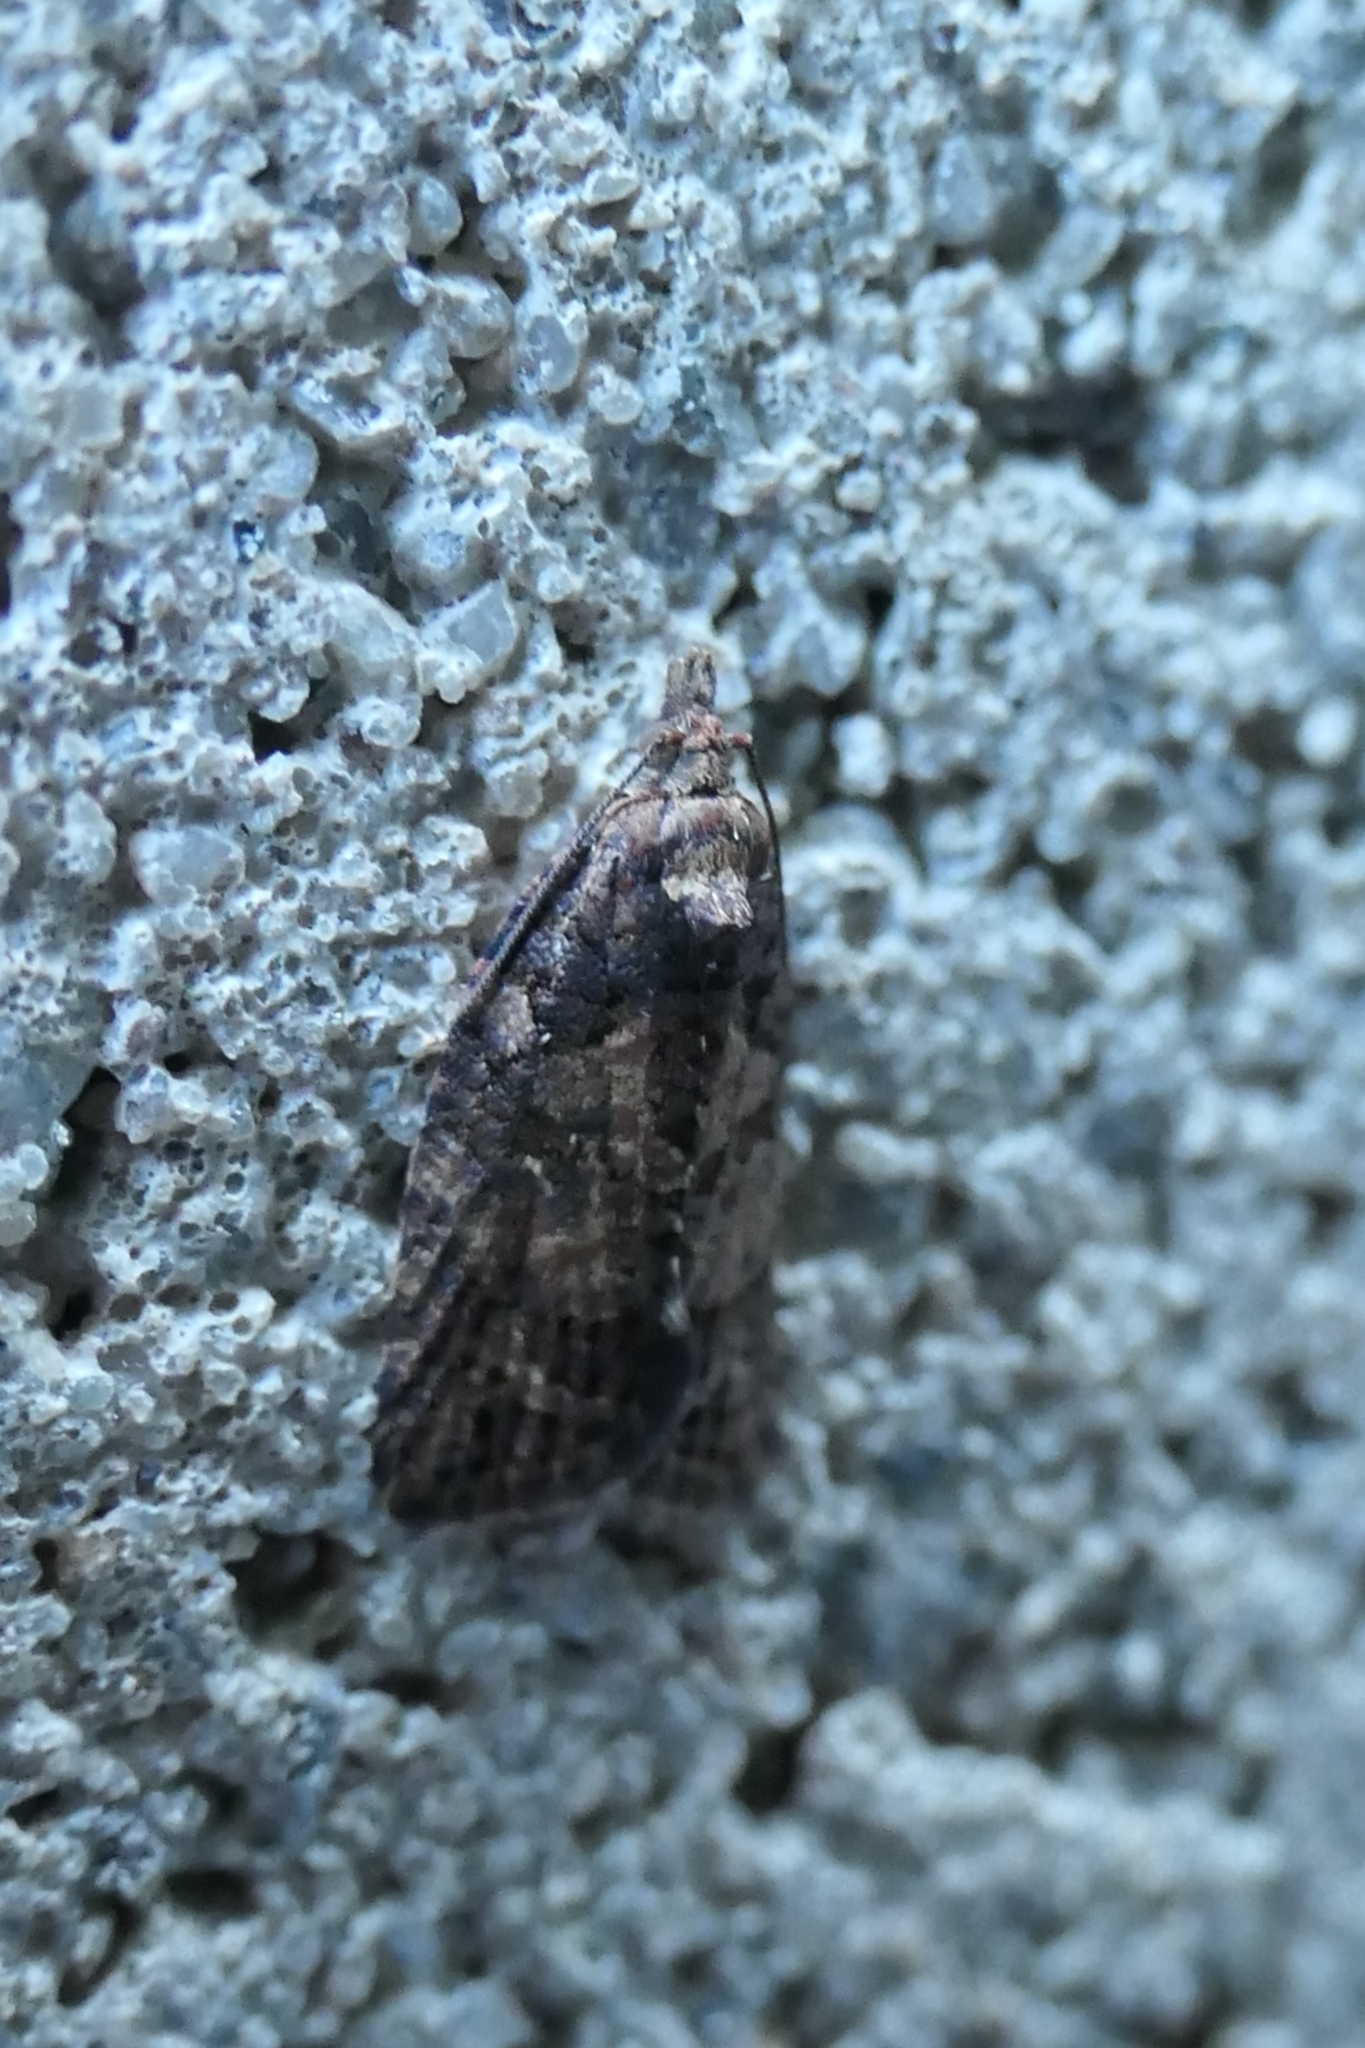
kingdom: Animalia
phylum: Arthropoda
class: Insecta
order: Lepidoptera
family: Tortricidae
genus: Capua
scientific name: Capua intractana
